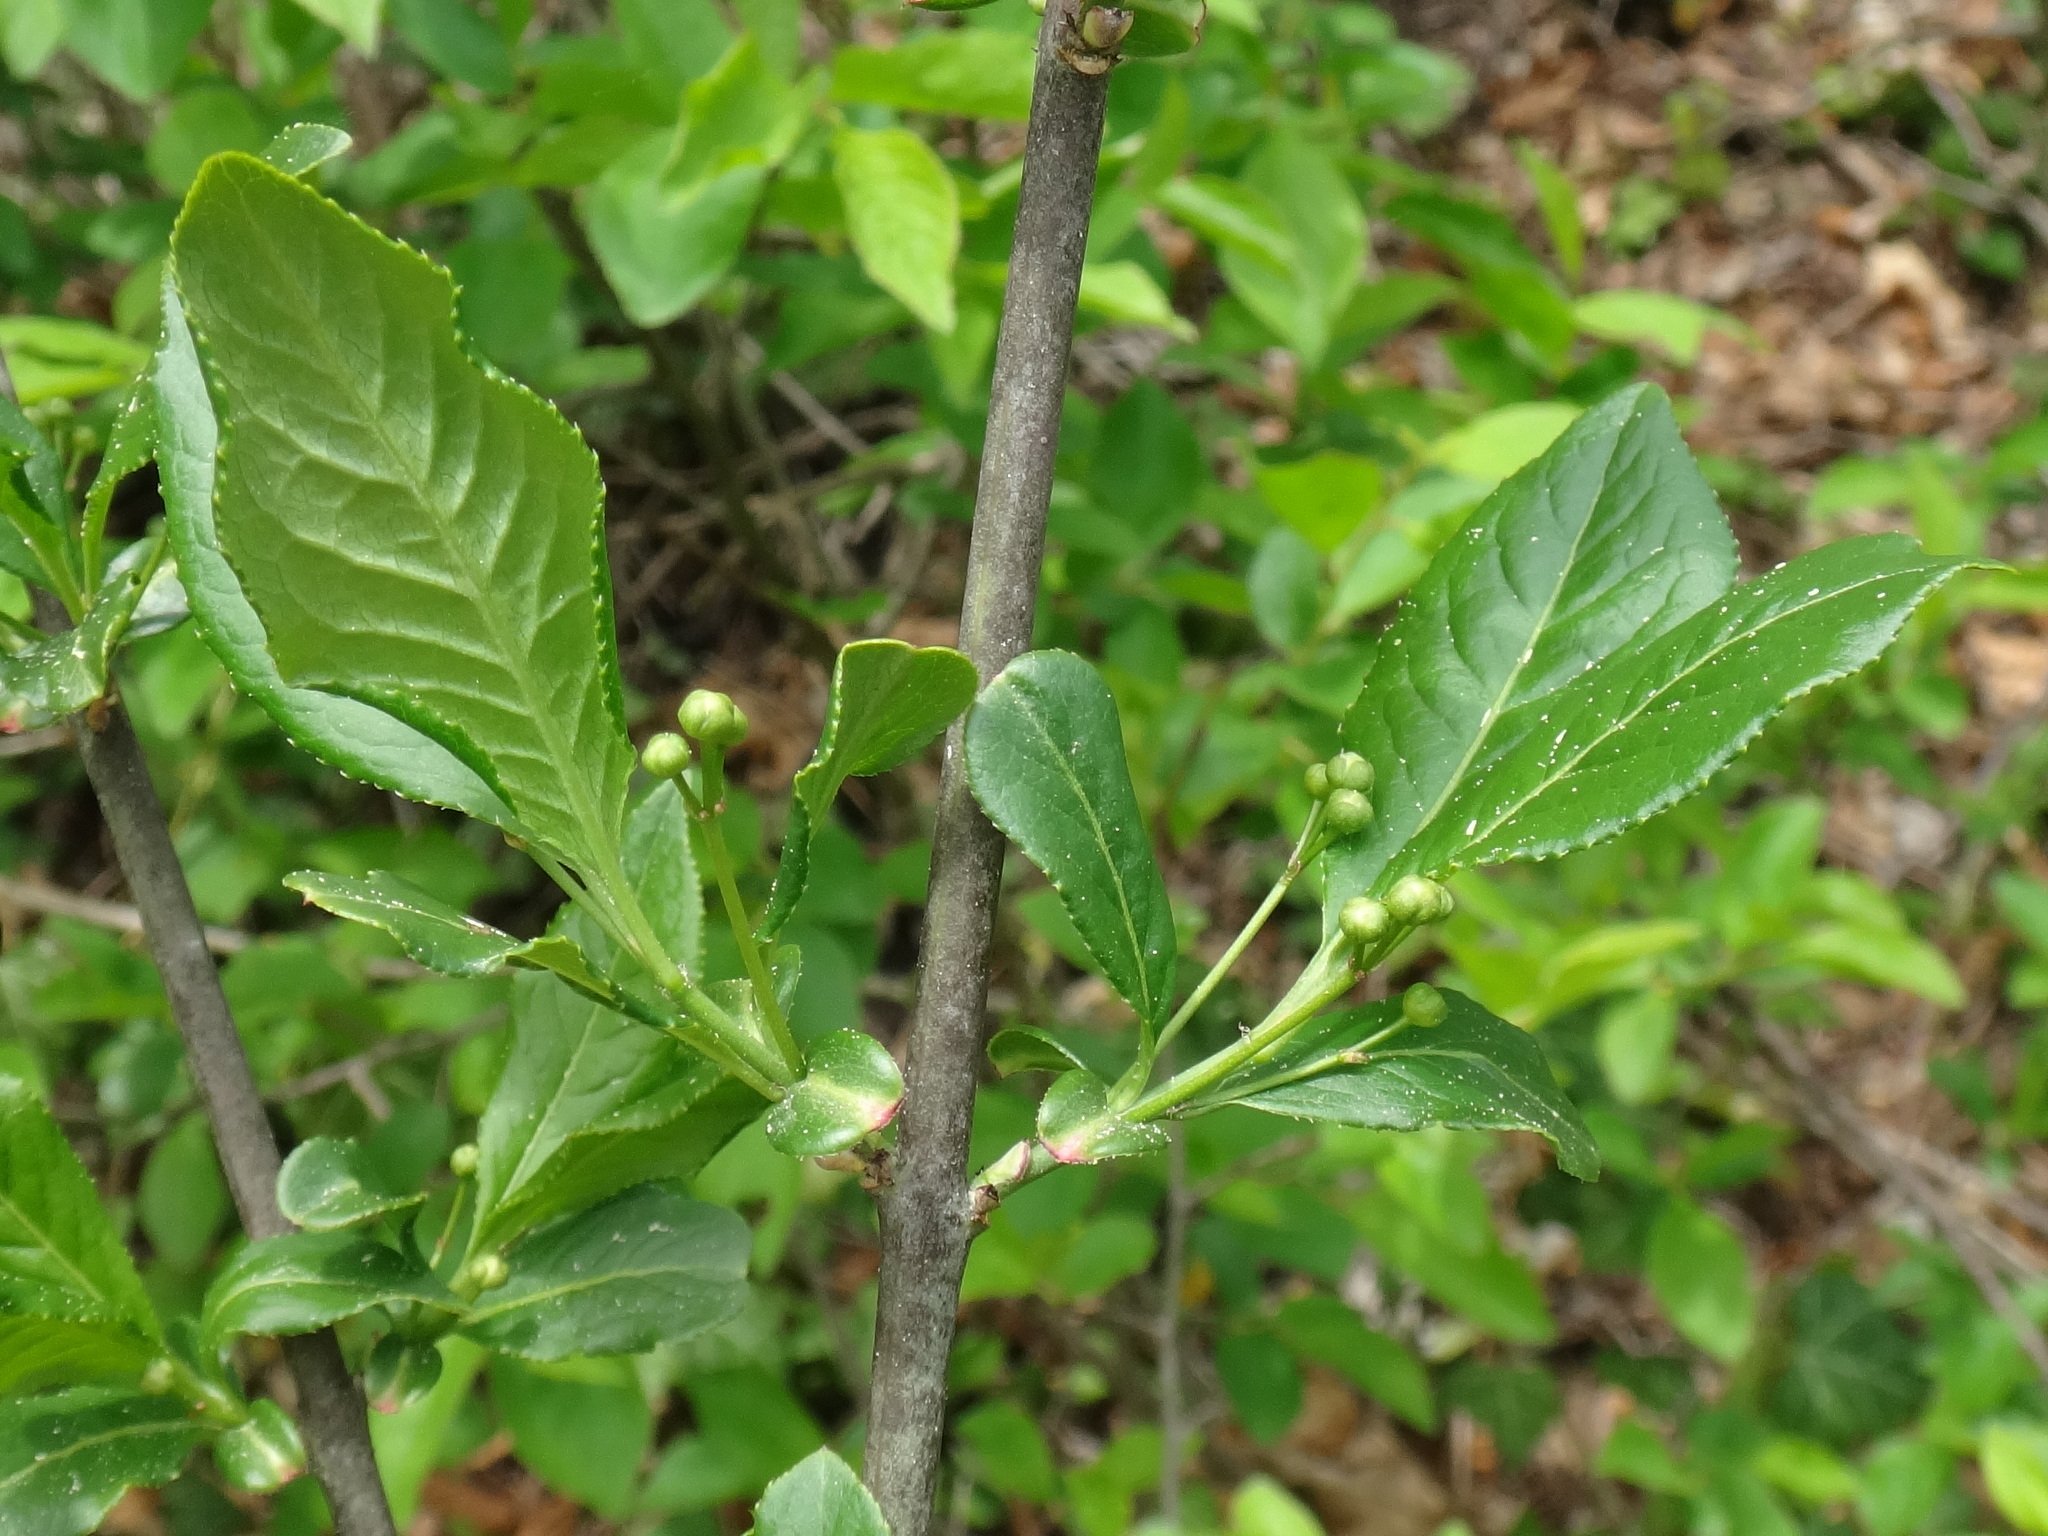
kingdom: Plantae
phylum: Tracheophyta
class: Magnoliopsida
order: Celastrales
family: Celastraceae
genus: Euonymus
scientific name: Euonymus europaeus
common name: Spindle
